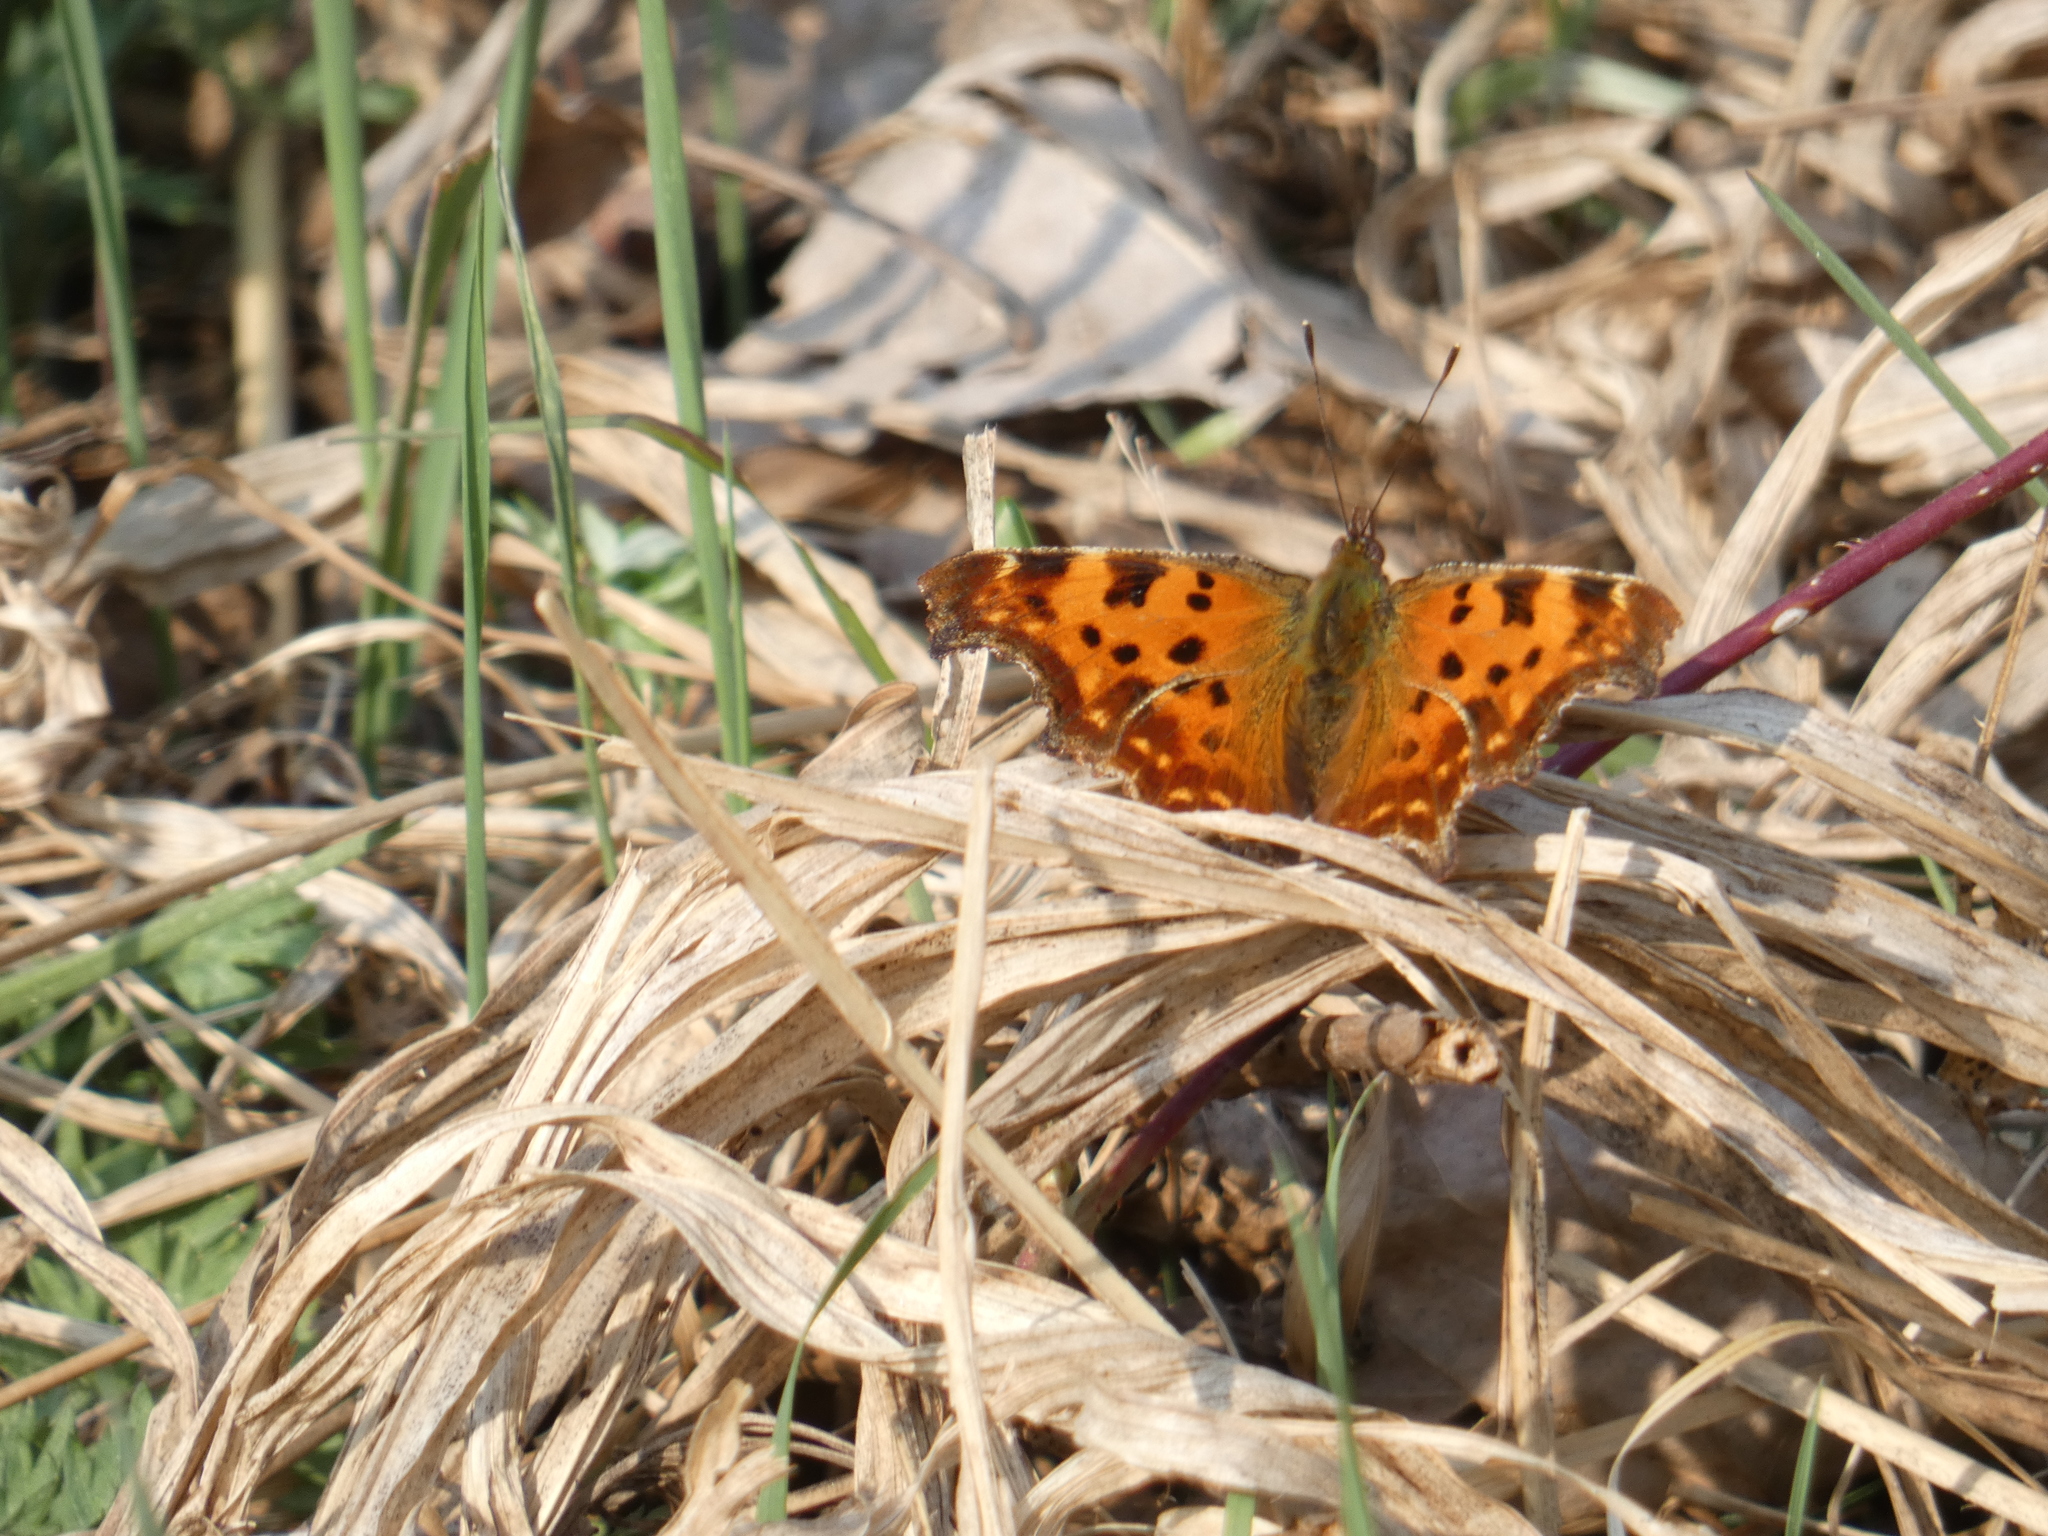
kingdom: Animalia
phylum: Arthropoda
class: Insecta
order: Lepidoptera
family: Nymphalidae
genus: Polygonia
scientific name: Polygonia c-album
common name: Comma
